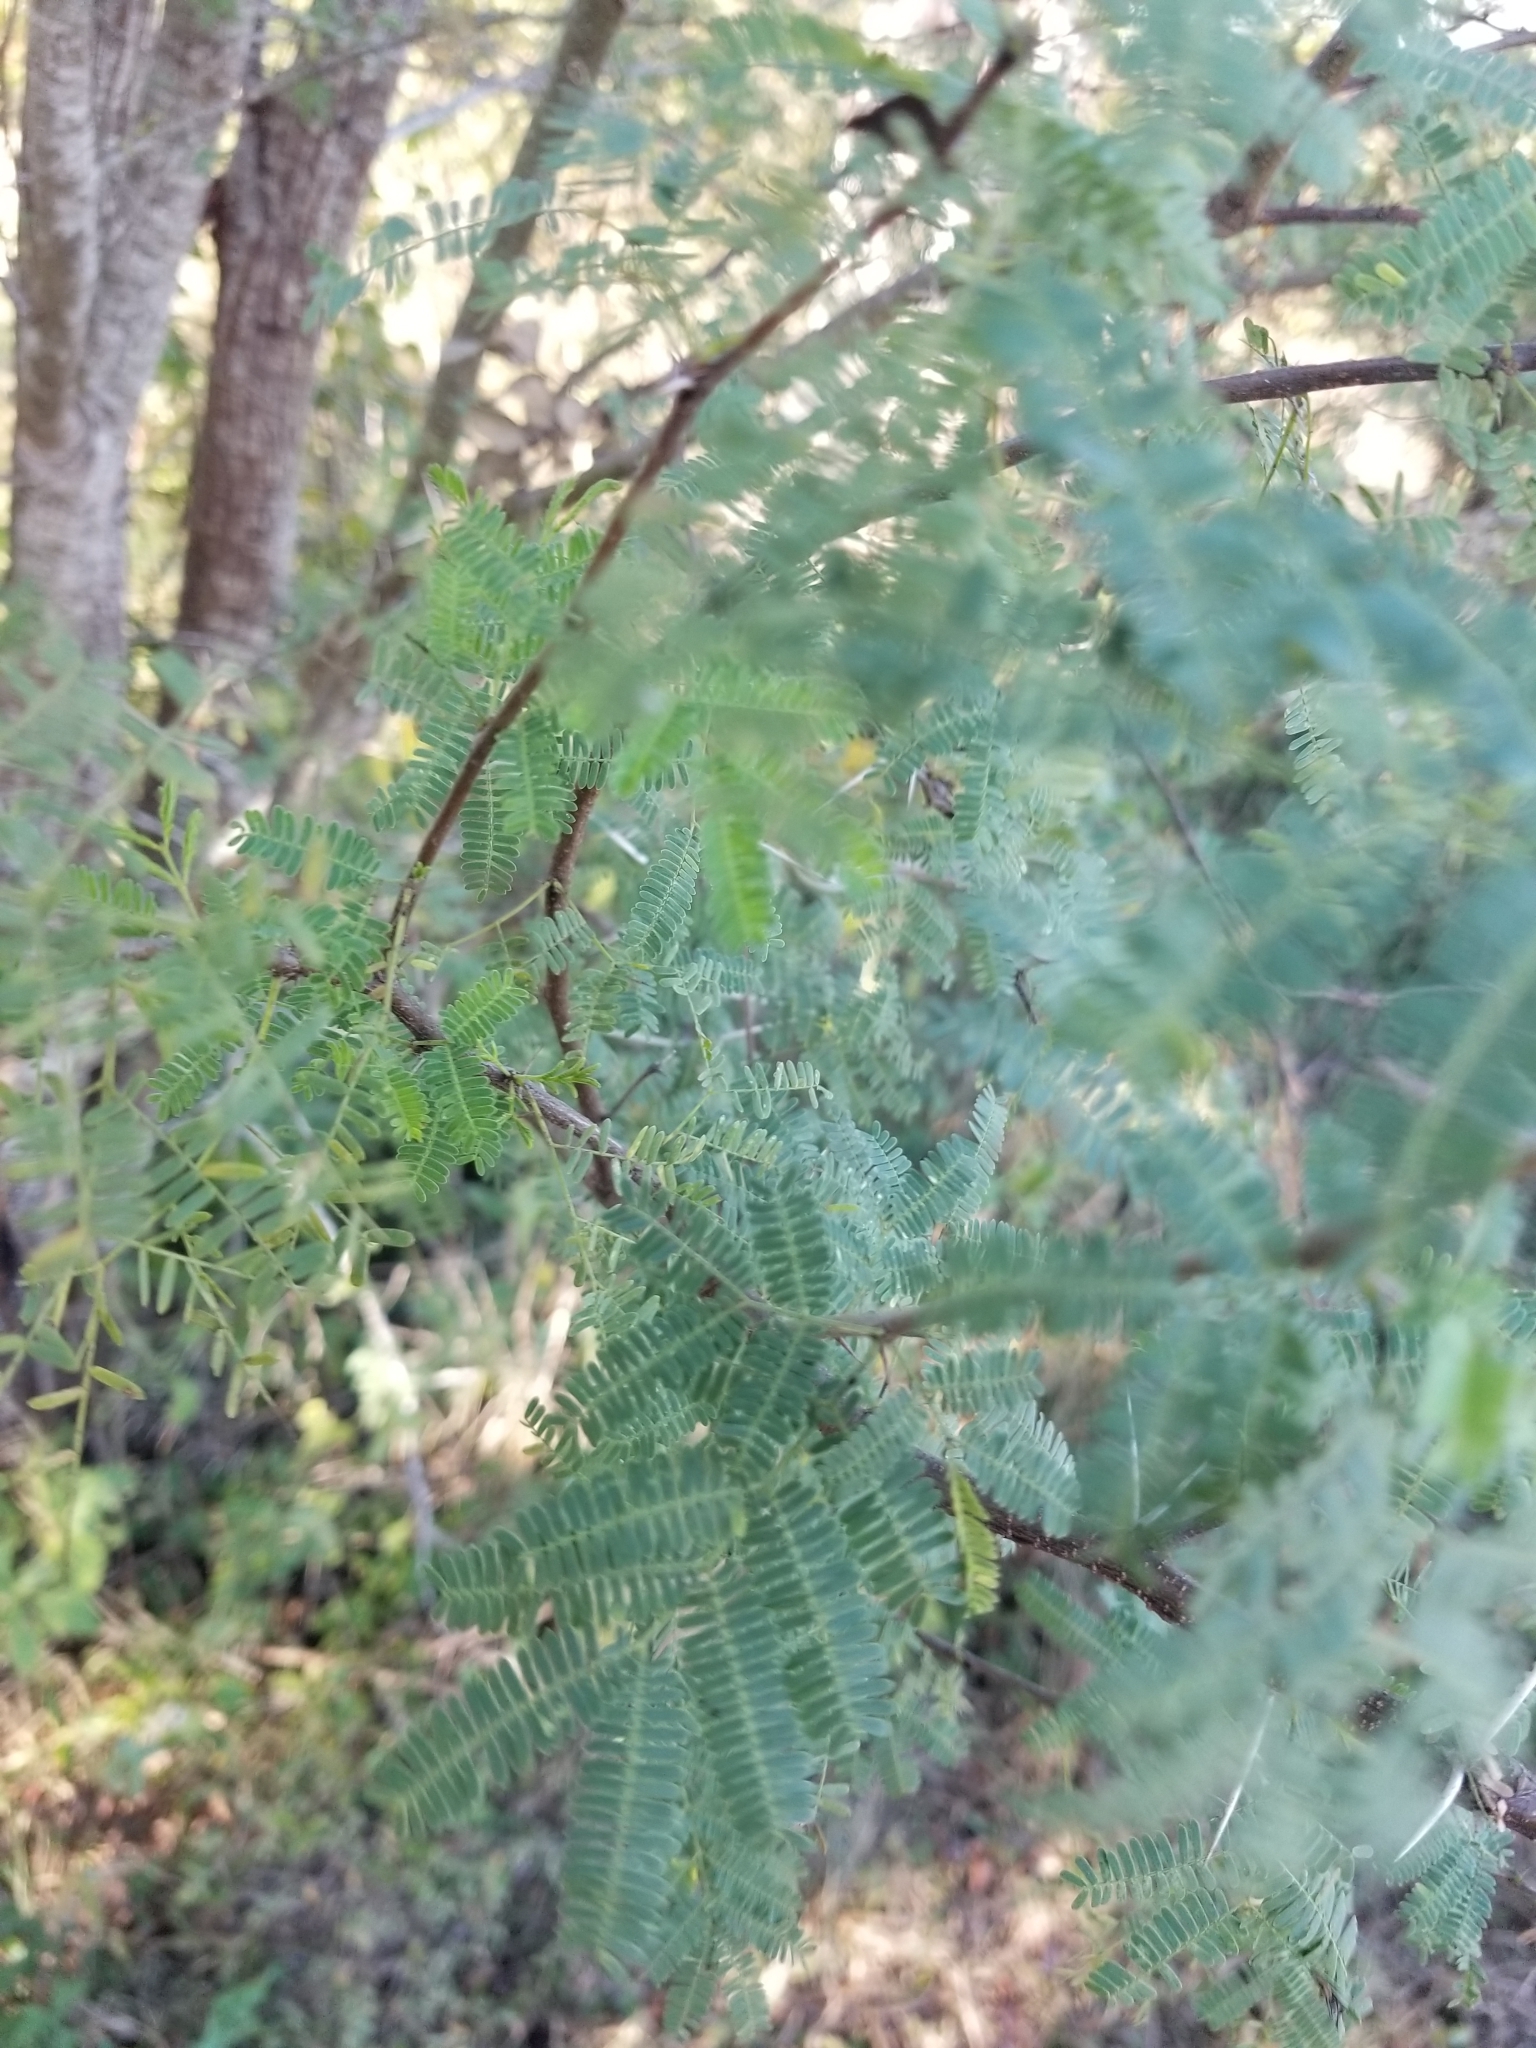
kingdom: Plantae
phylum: Tracheophyta
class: Magnoliopsida
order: Fabales
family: Fabaceae
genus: Vachellia
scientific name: Vachellia farnesiana
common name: Sweet acacia
